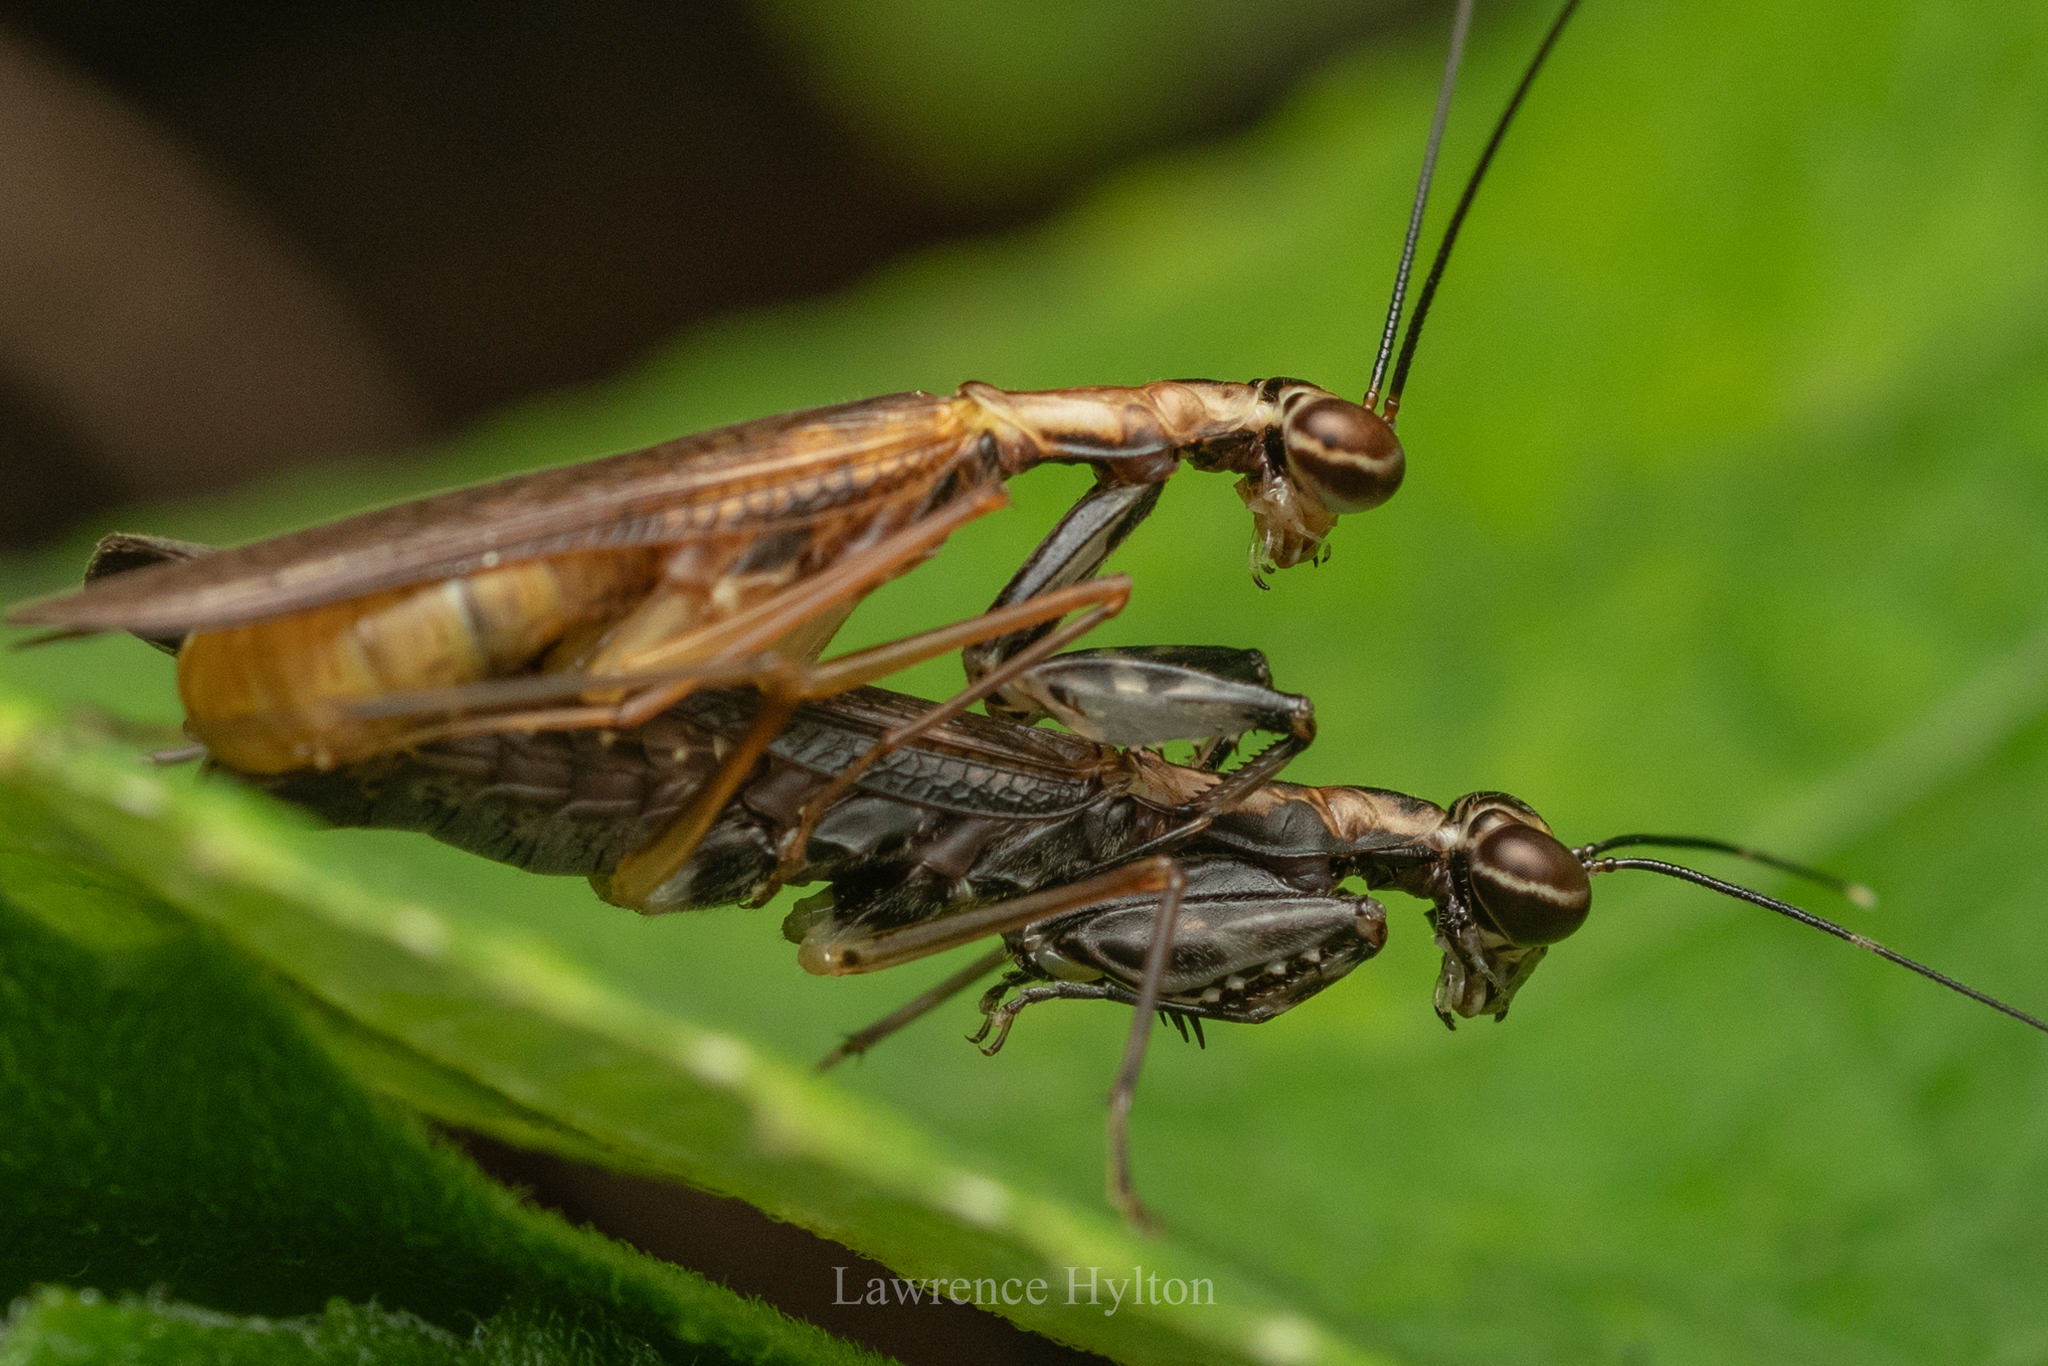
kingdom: Animalia
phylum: Arthropoda
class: Insecta
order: Mantodea
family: Gonypetidae
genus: Spilomantis
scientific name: Spilomantis occipitalis
